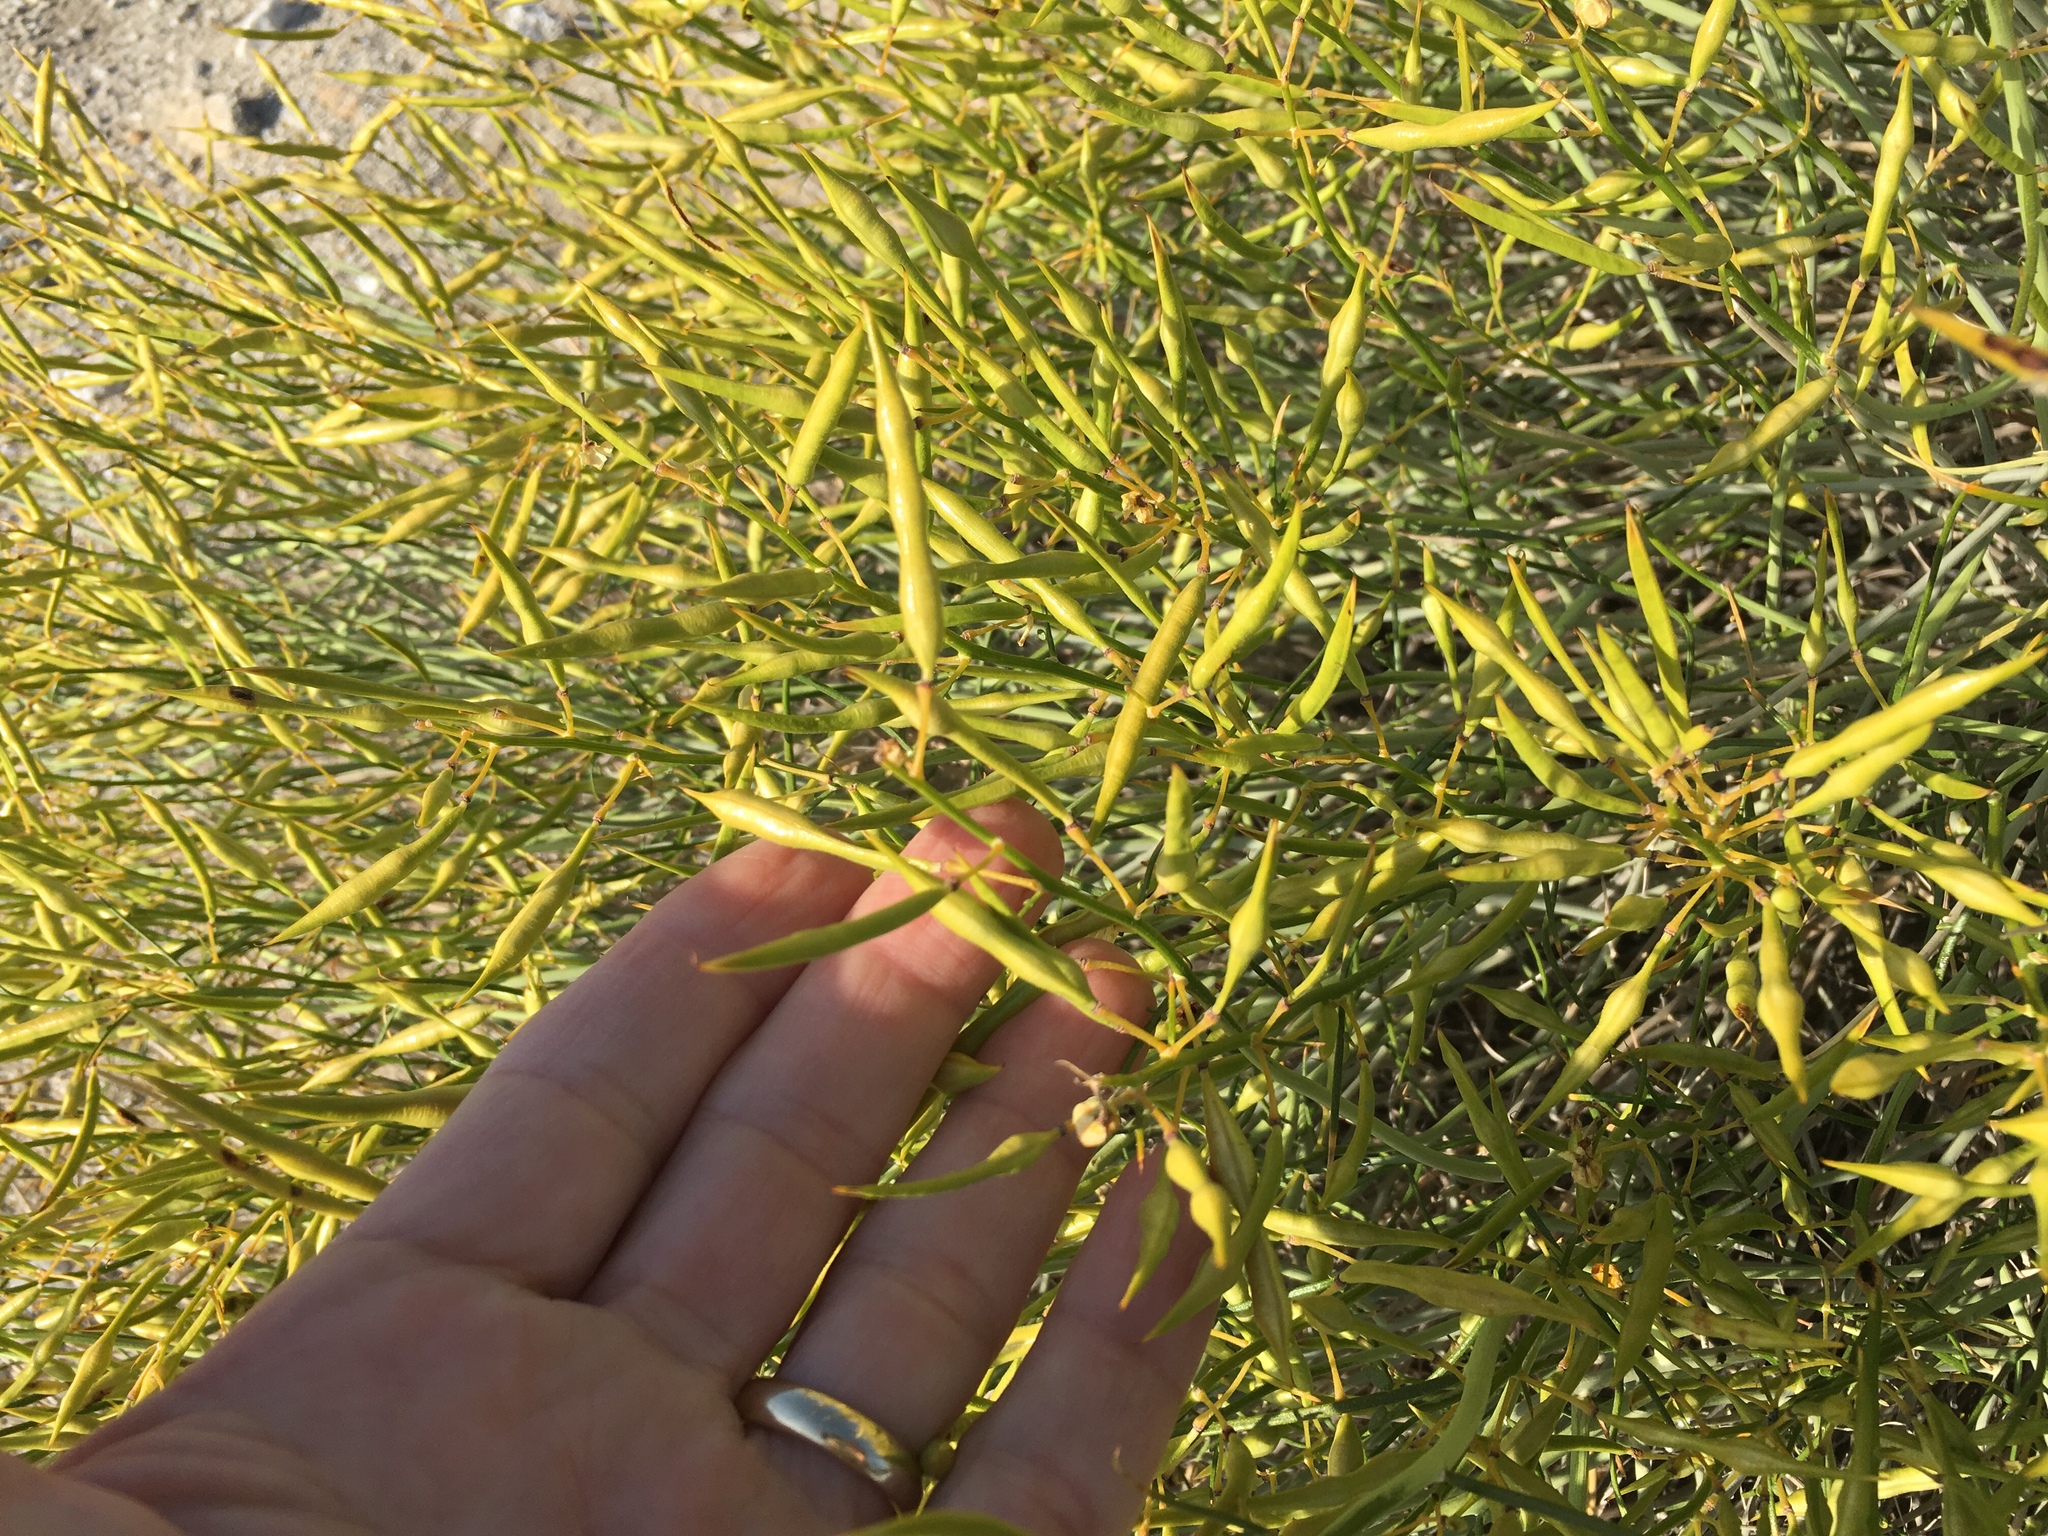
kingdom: Plantae
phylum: Tracheophyta
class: Magnoliopsida
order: Fabales
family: Fabaceae
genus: Senna
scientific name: Senna armata
